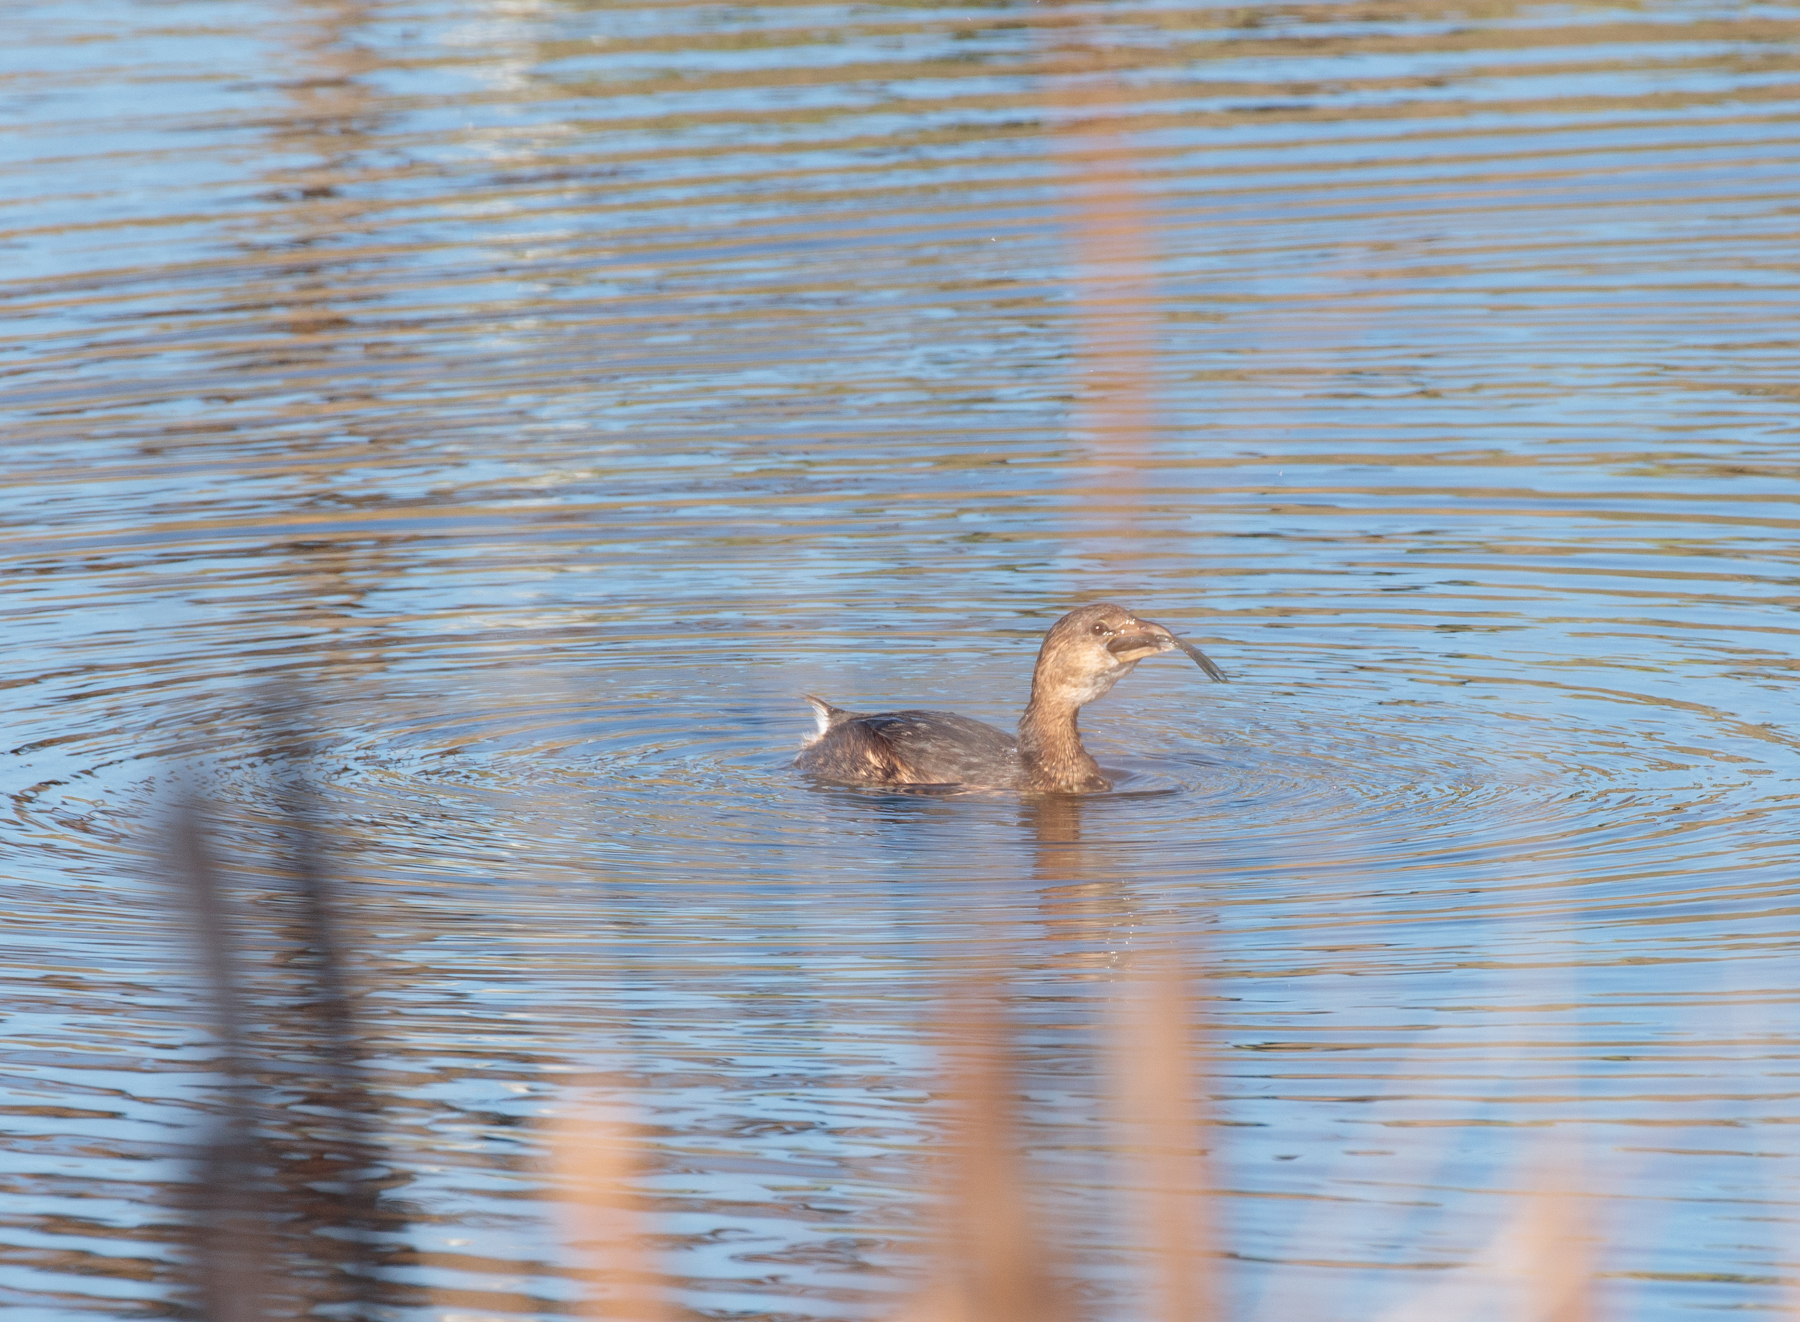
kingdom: Animalia
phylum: Chordata
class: Aves
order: Podicipediformes
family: Podicipedidae
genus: Podilymbus
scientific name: Podilymbus podiceps
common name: Pied-billed grebe
